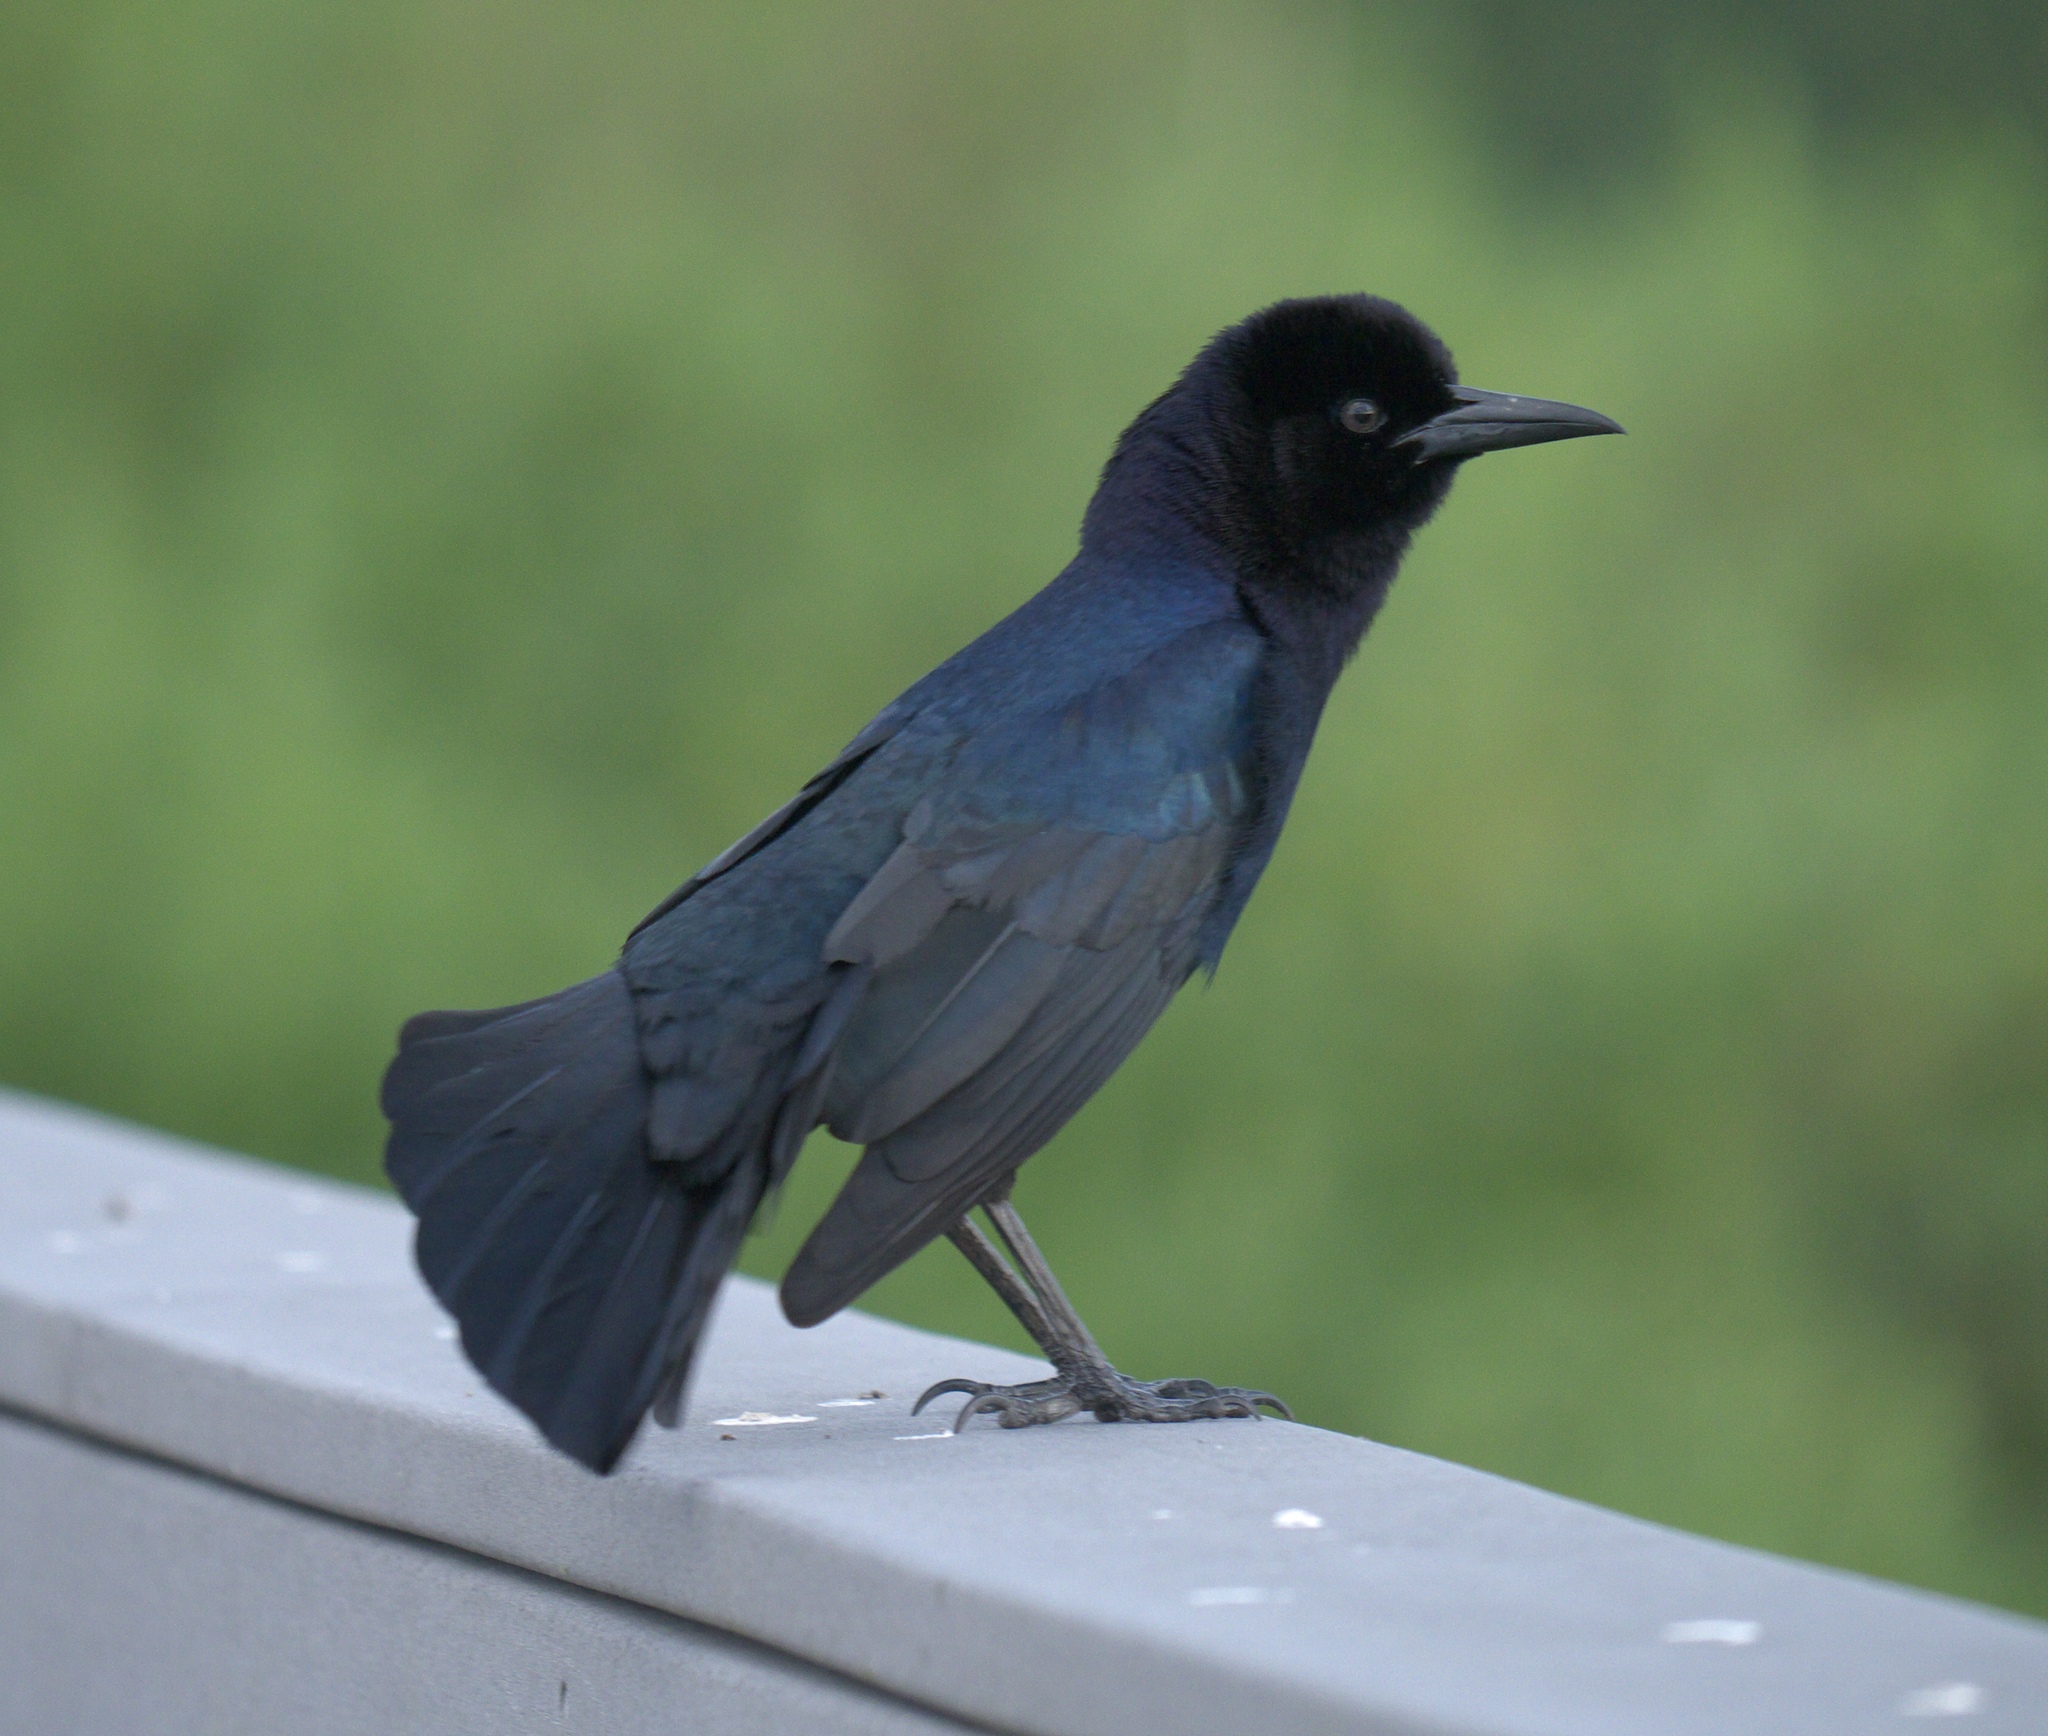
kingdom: Animalia
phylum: Chordata
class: Aves
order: Passeriformes
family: Icteridae
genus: Quiscalus
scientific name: Quiscalus major
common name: Boat-tailed grackle
